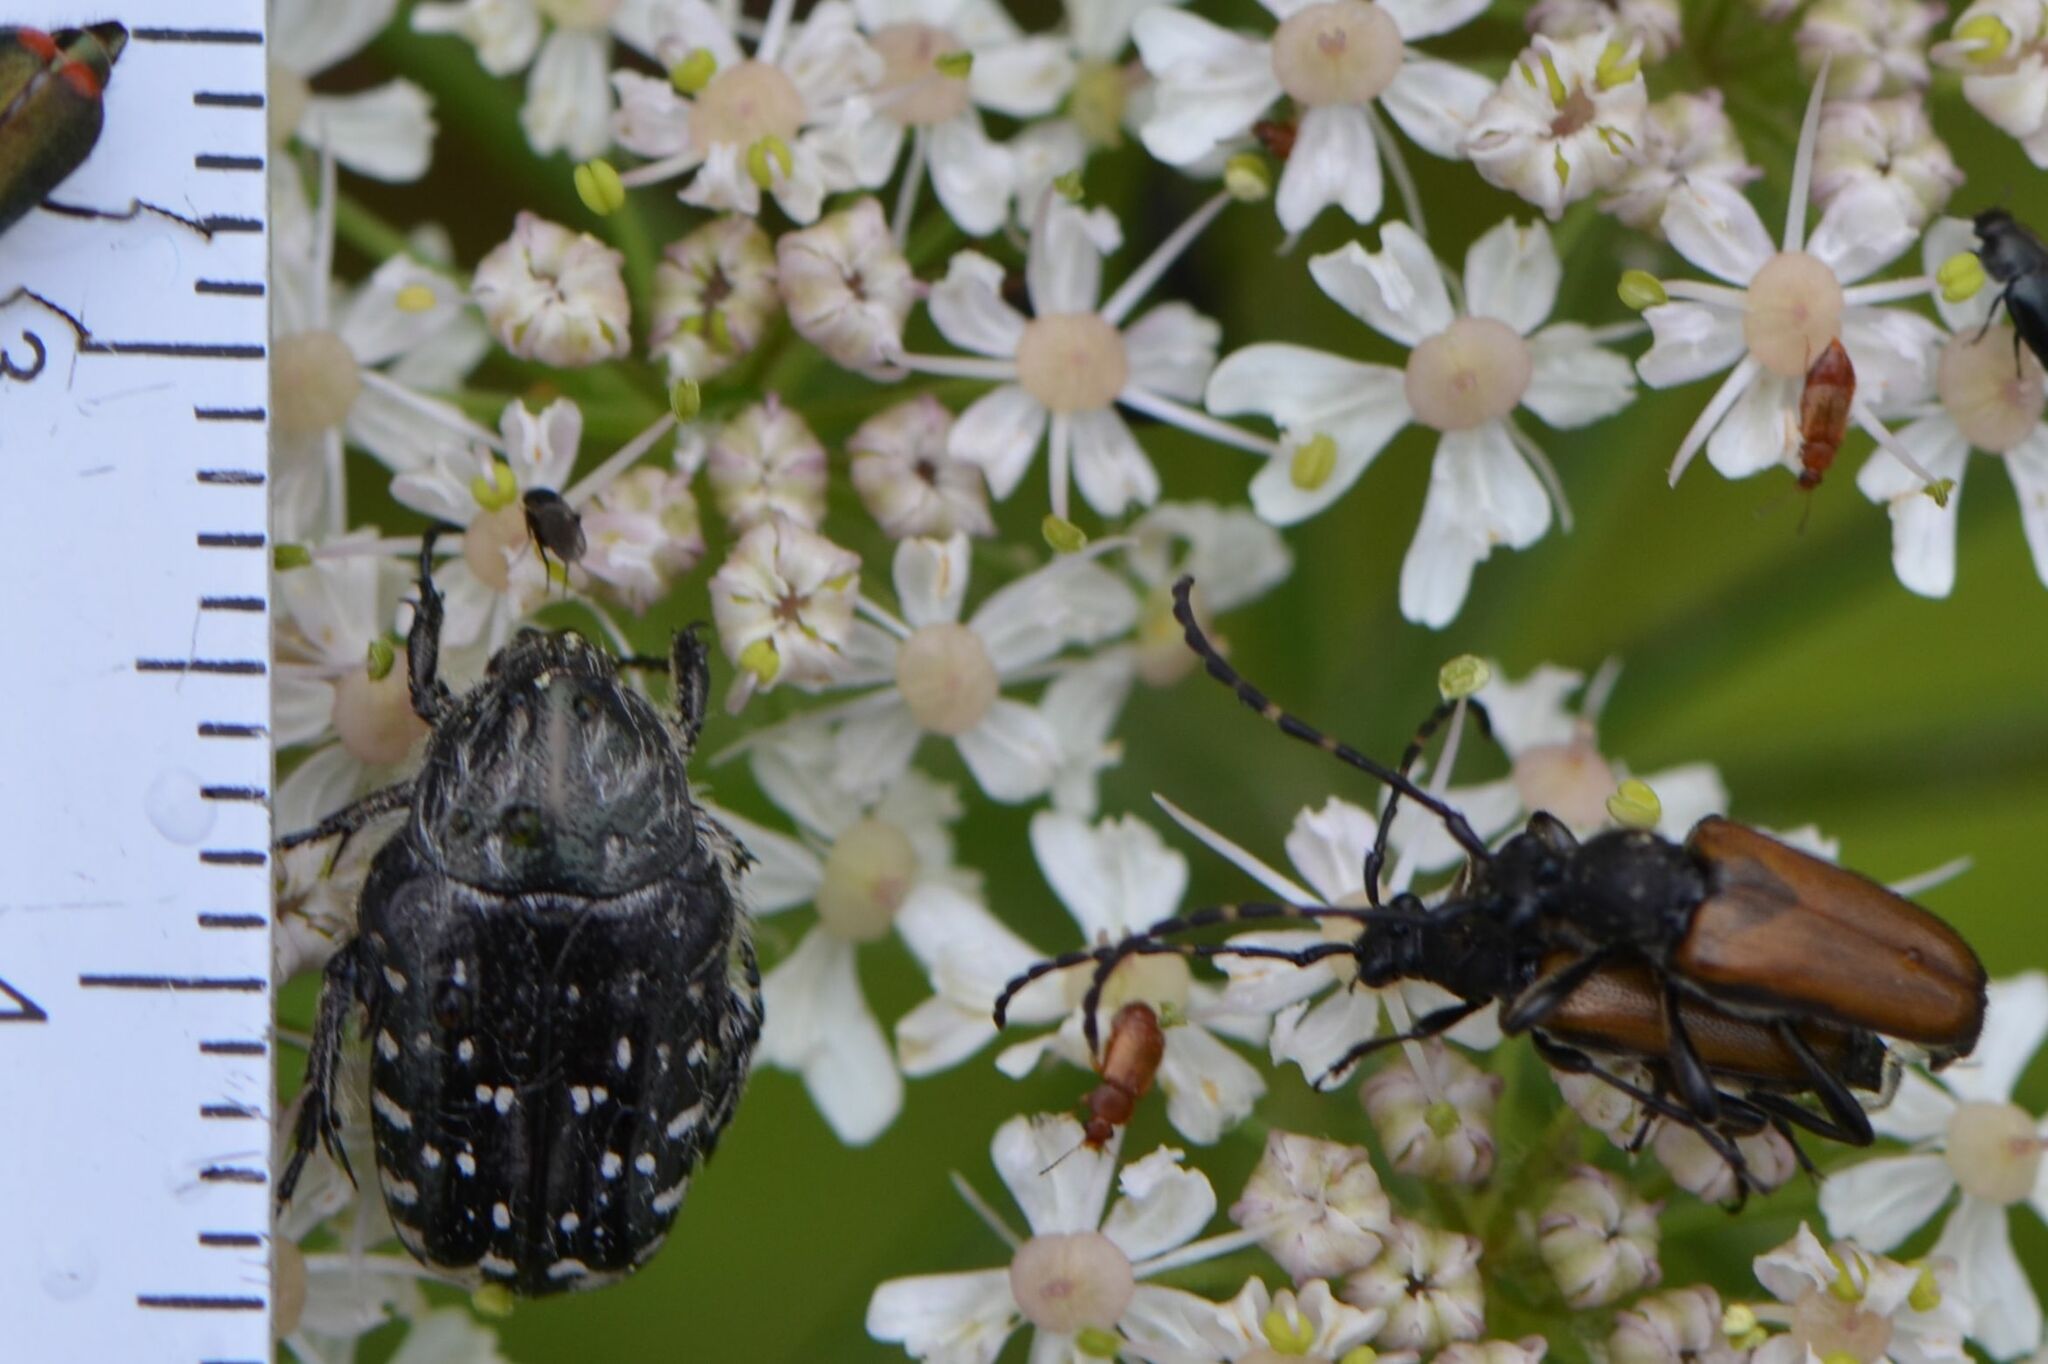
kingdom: Animalia
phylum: Arthropoda
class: Insecta
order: Coleoptera
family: Cerambycidae
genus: Paracorymbia
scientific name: Paracorymbia maculicornis
